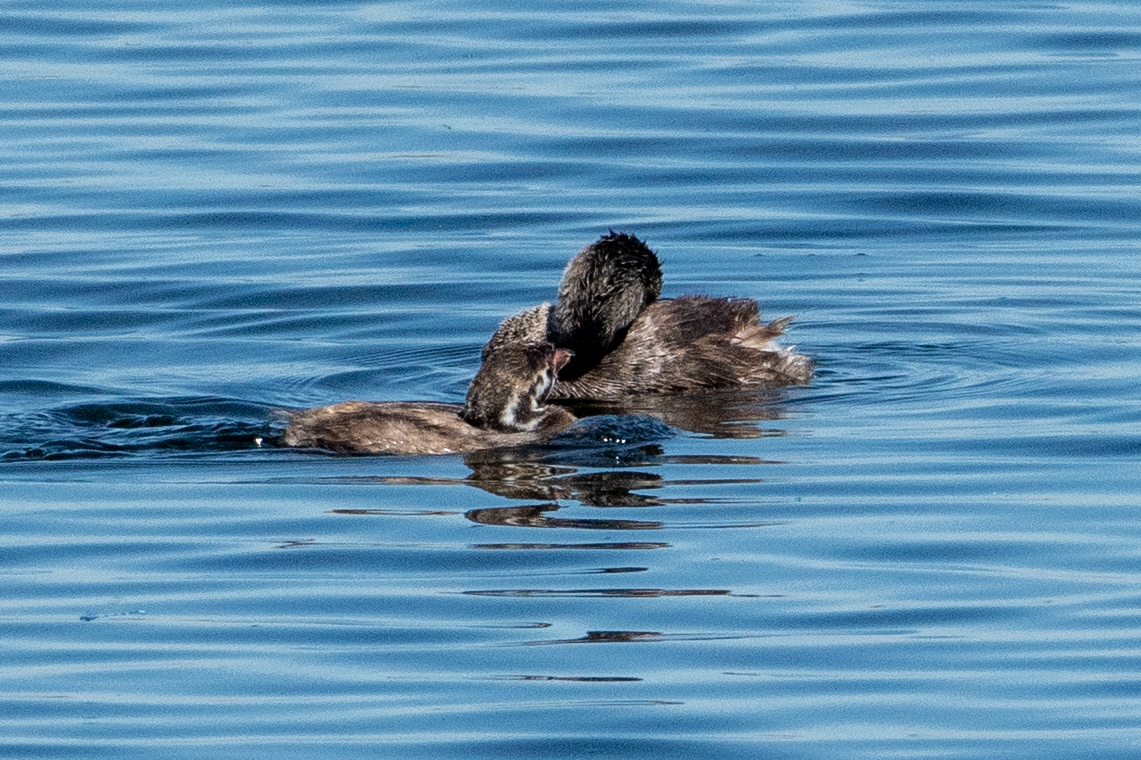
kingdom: Animalia
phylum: Chordata
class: Aves
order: Podicipediformes
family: Podicipedidae
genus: Podilymbus
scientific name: Podilymbus podiceps
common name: Pied-billed grebe
